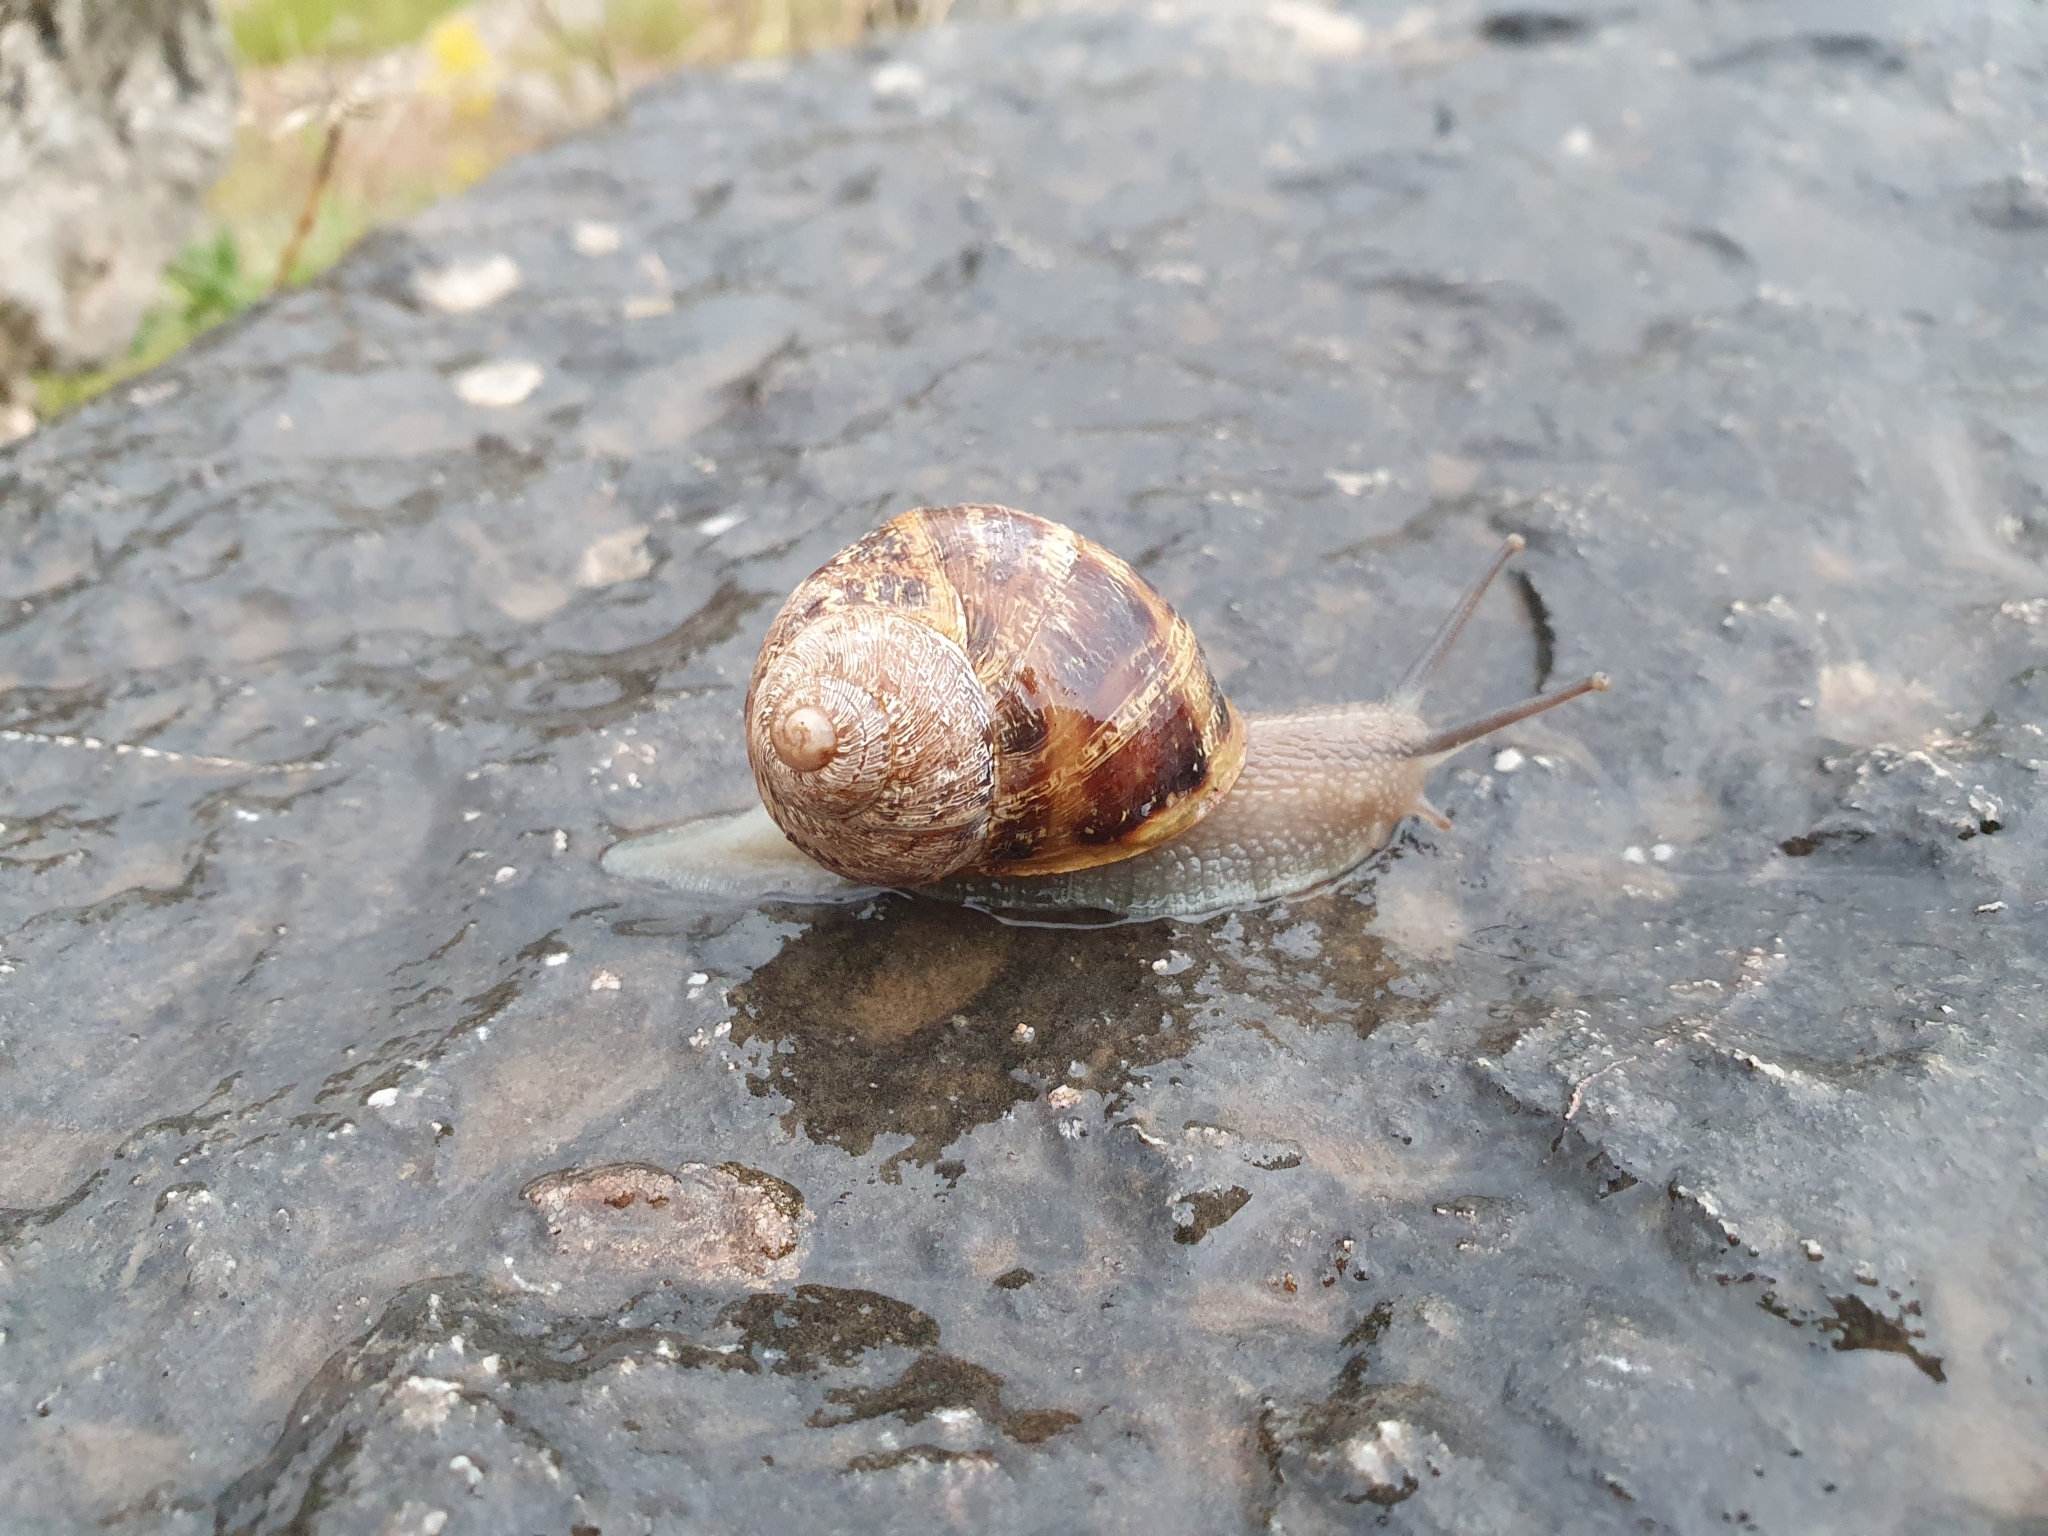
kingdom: Animalia
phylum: Mollusca
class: Gastropoda
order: Stylommatophora
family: Helicidae
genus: Cornu
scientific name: Cornu aspersum
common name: Brown garden snail
